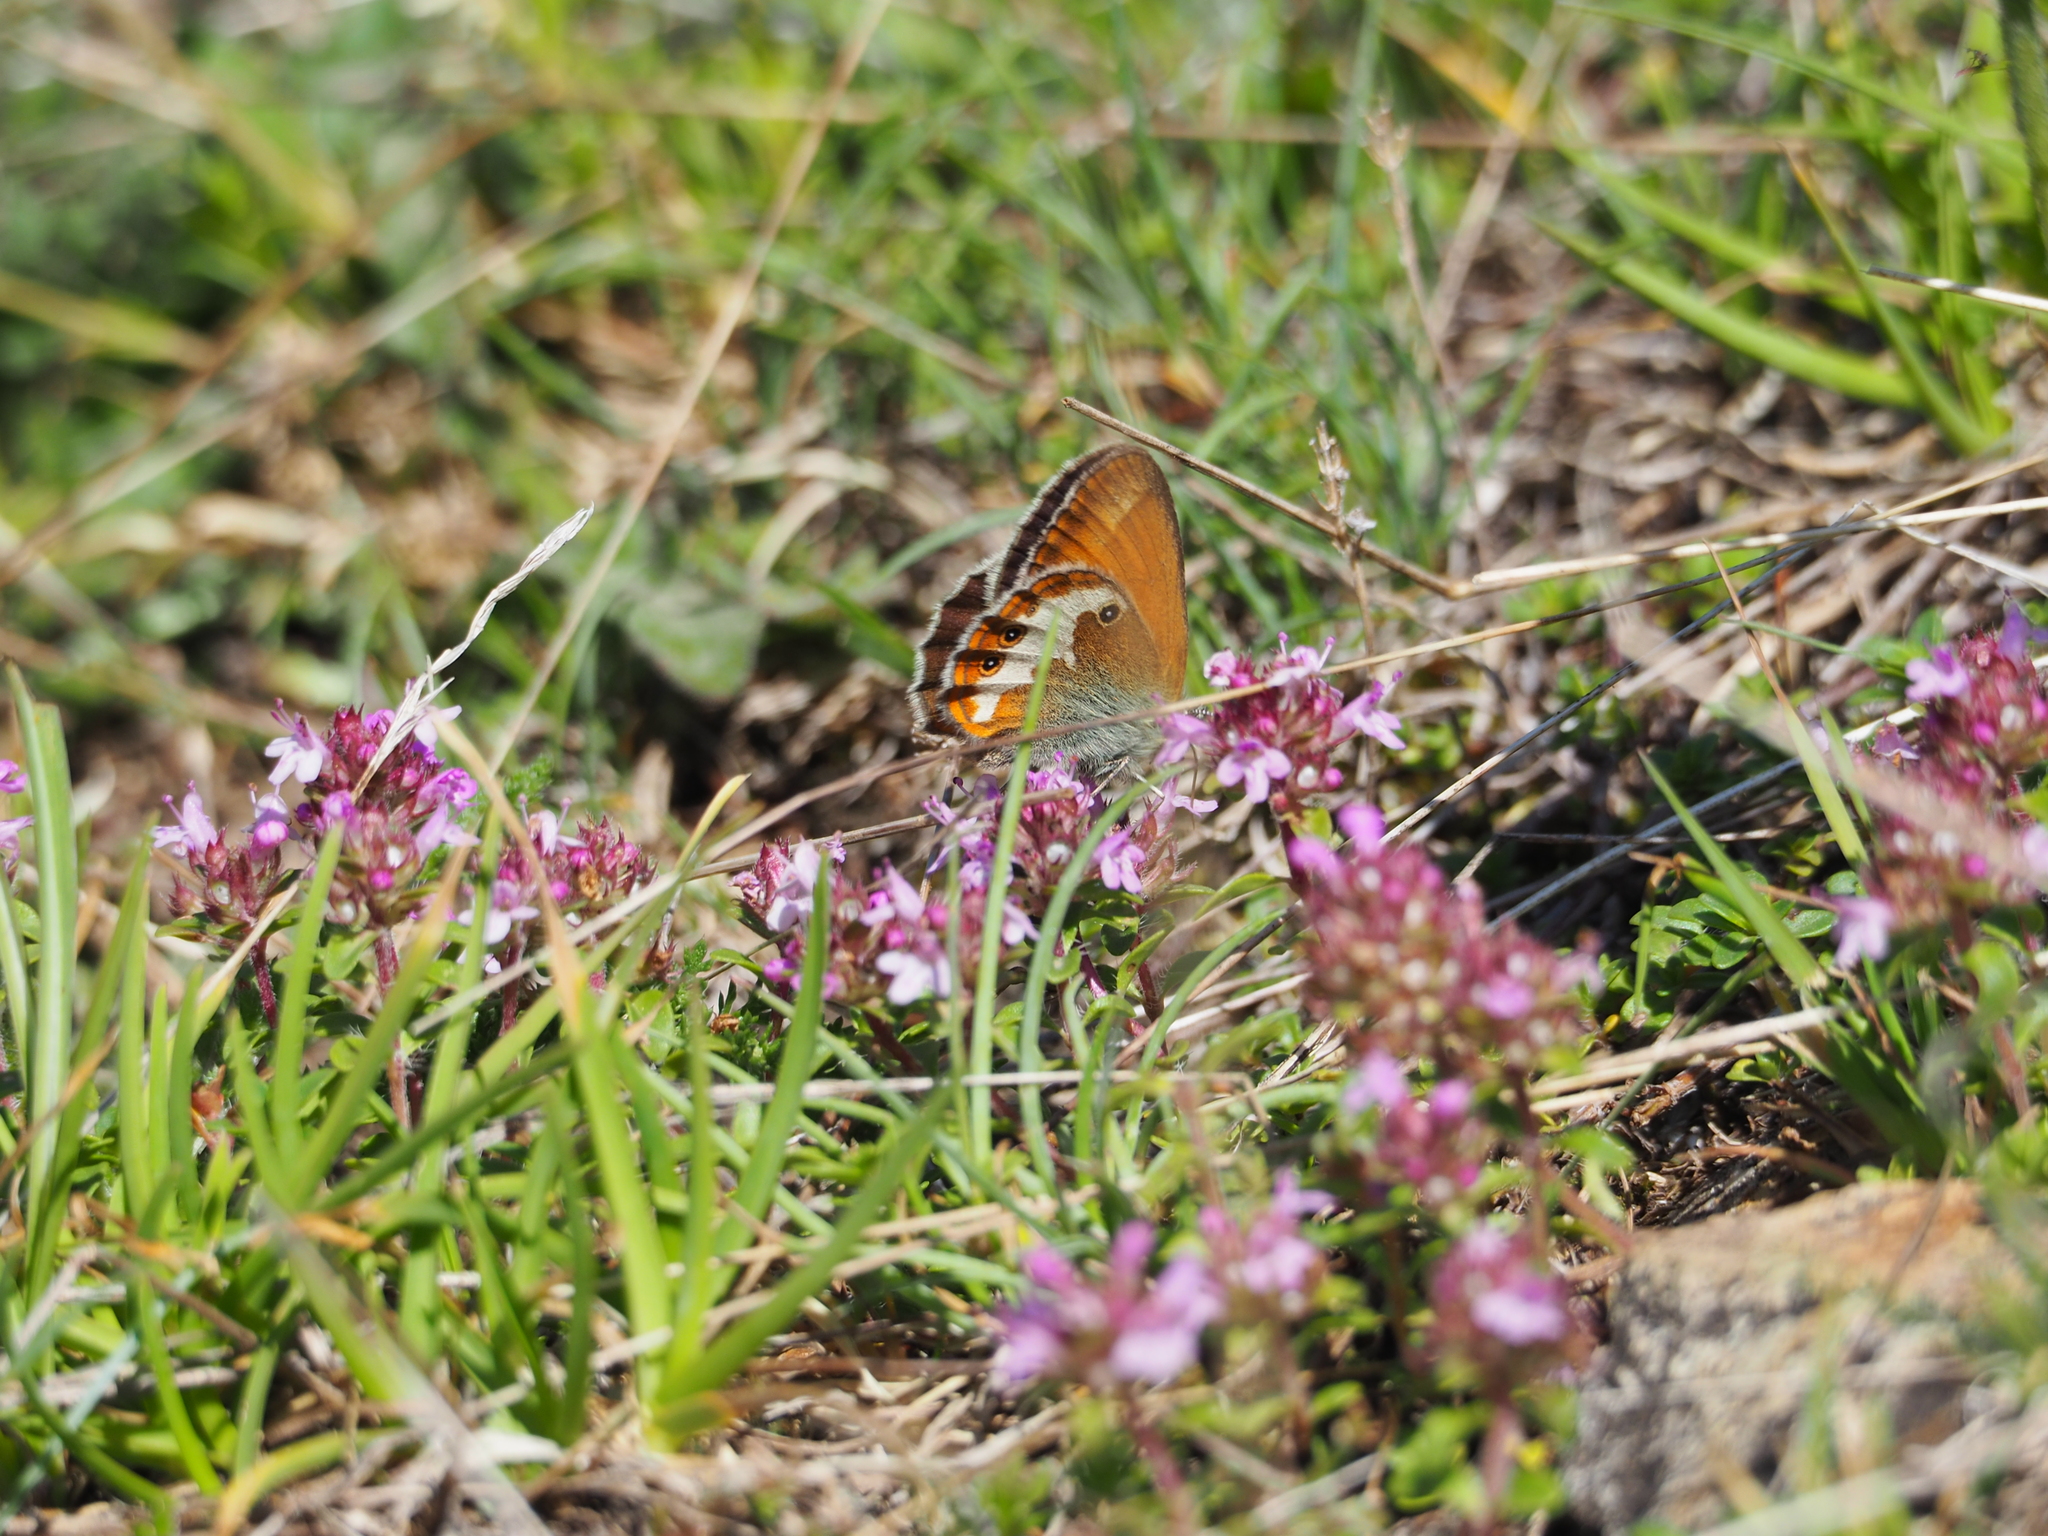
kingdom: Animalia
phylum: Arthropoda
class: Insecta
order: Lepidoptera
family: Nymphalidae
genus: Coenonympha
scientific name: Coenonympha arcania
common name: Pearly heath
